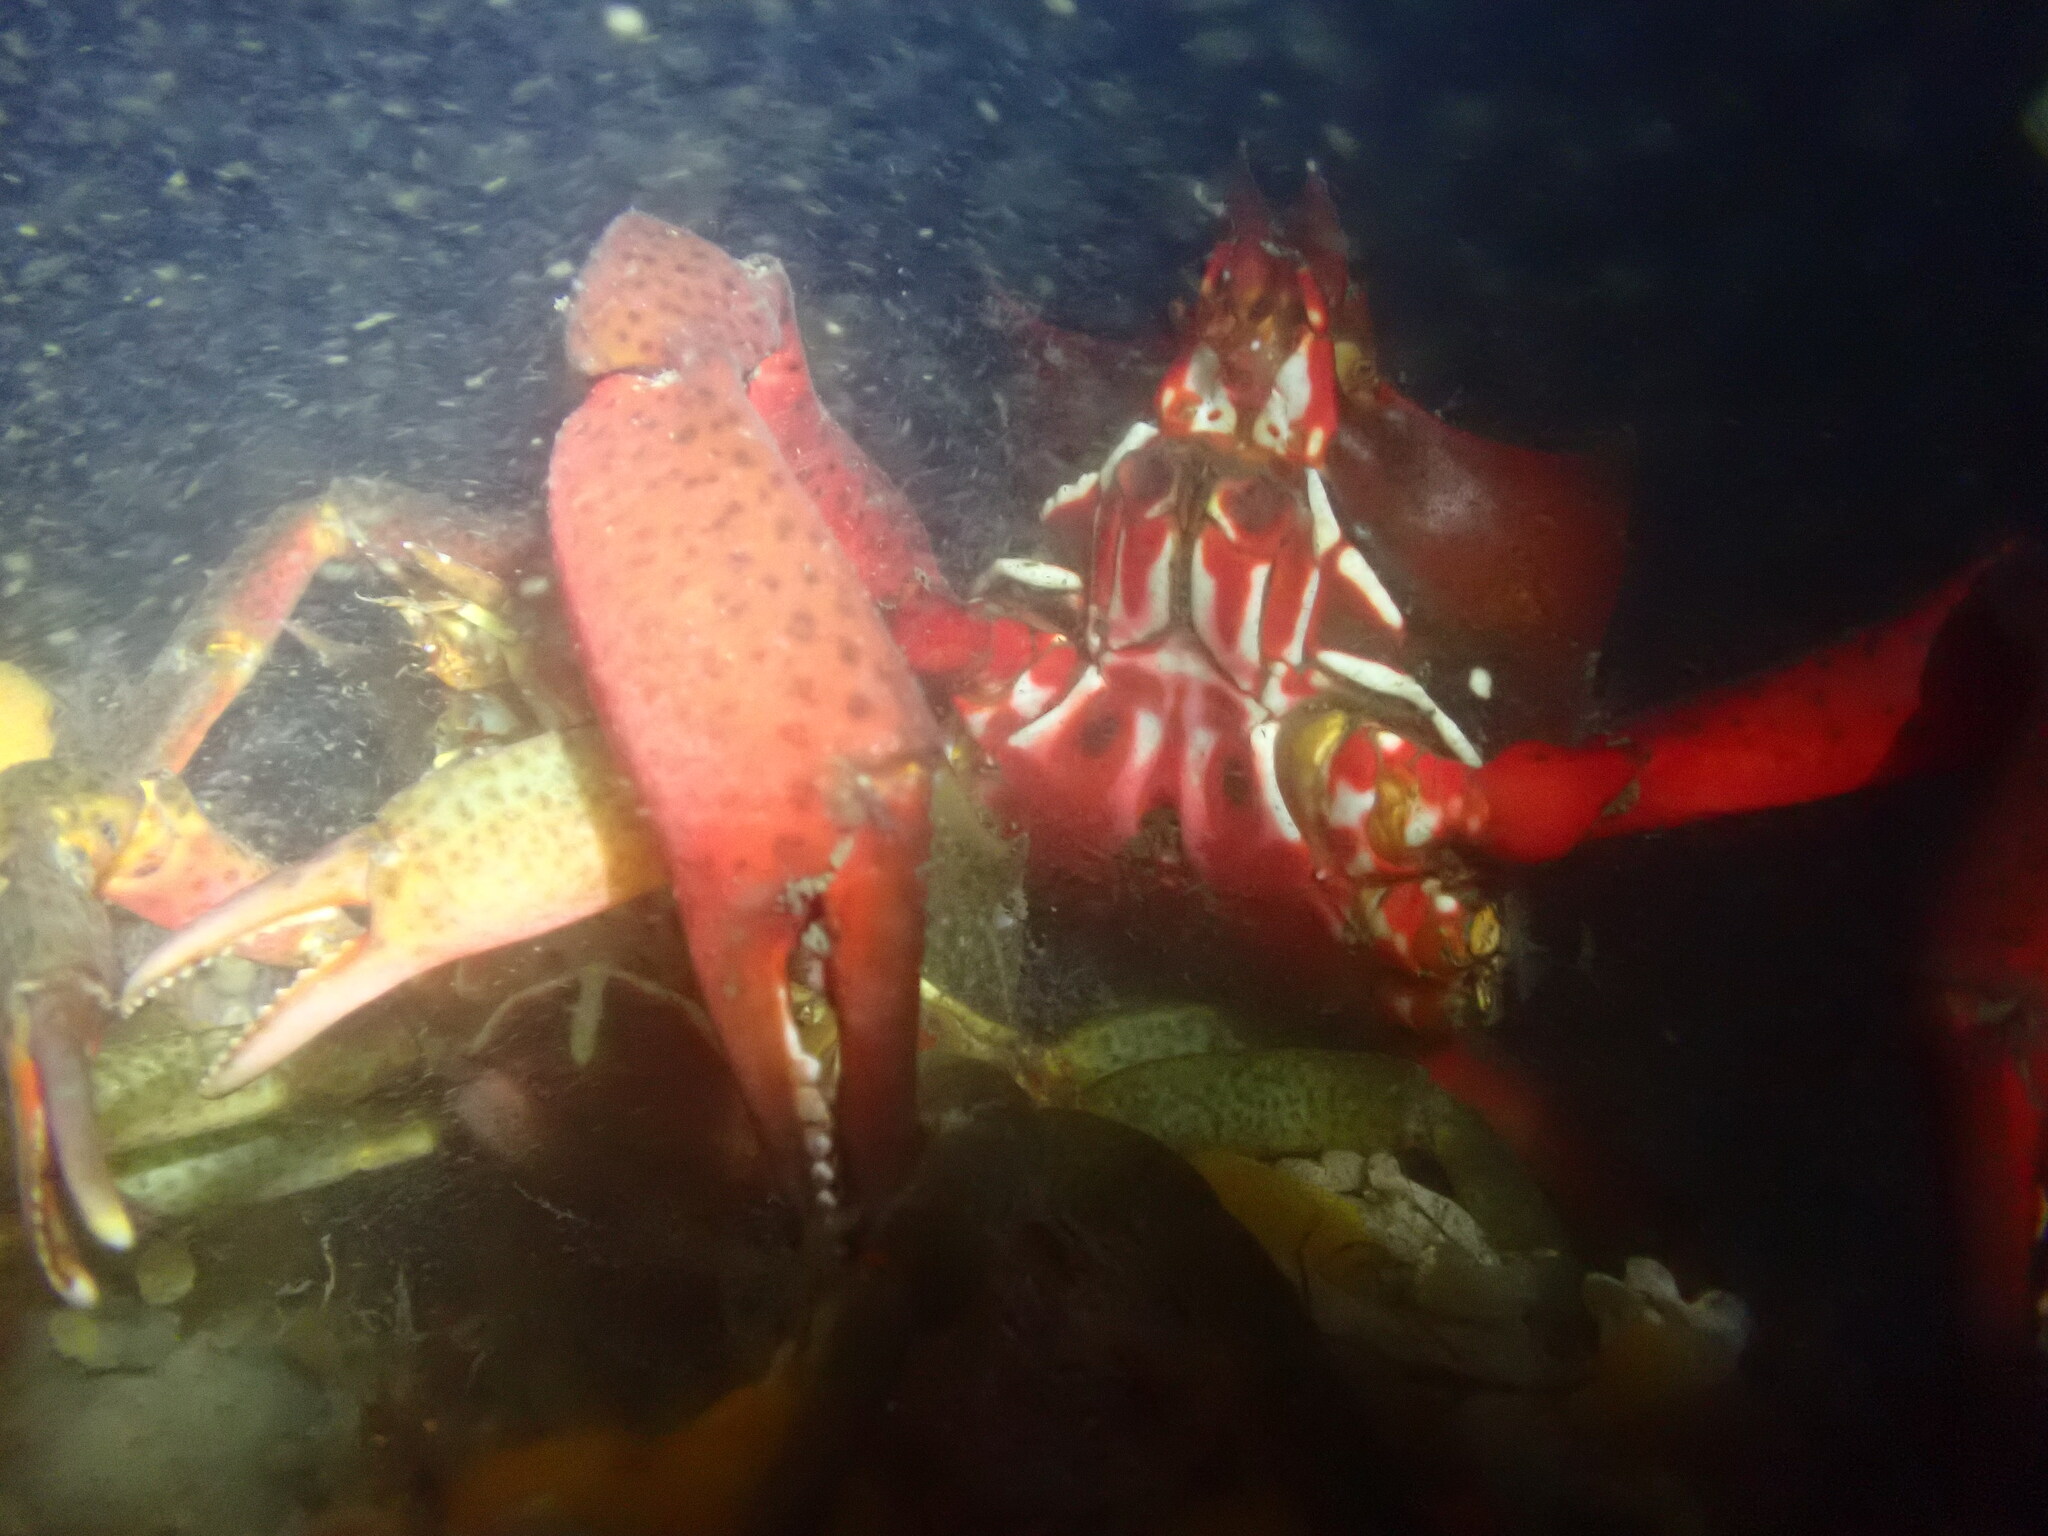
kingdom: Animalia
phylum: Arthropoda
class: Malacostraca
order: Decapoda
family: Epialtidae
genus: Pugettia
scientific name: Pugettia producta
